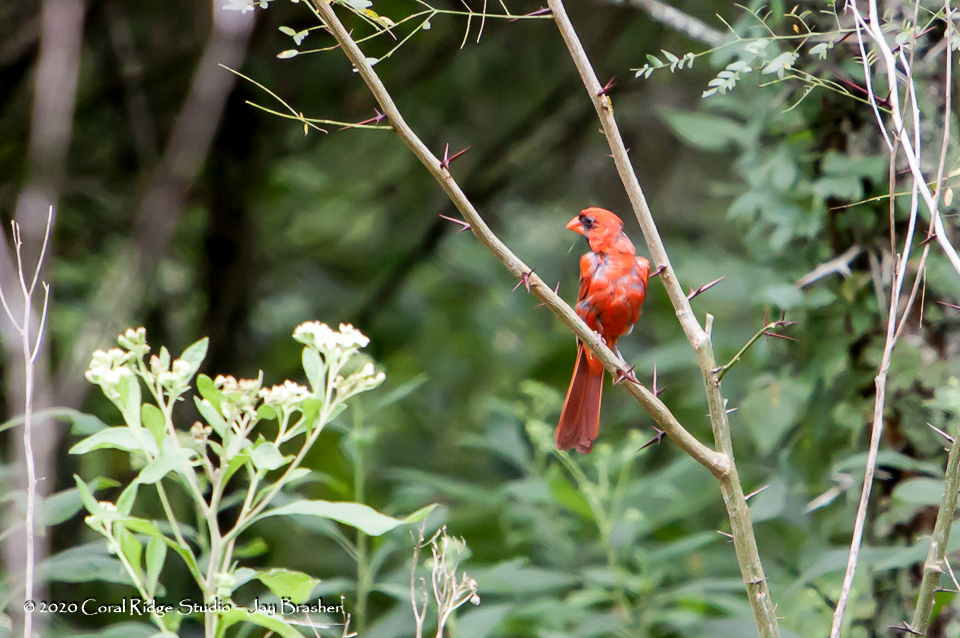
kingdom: Animalia
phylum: Chordata
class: Aves
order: Passeriformes
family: Cardinalidae
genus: Cardinalis
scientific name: Cardinalis cardinalis
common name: Northern cardinal
